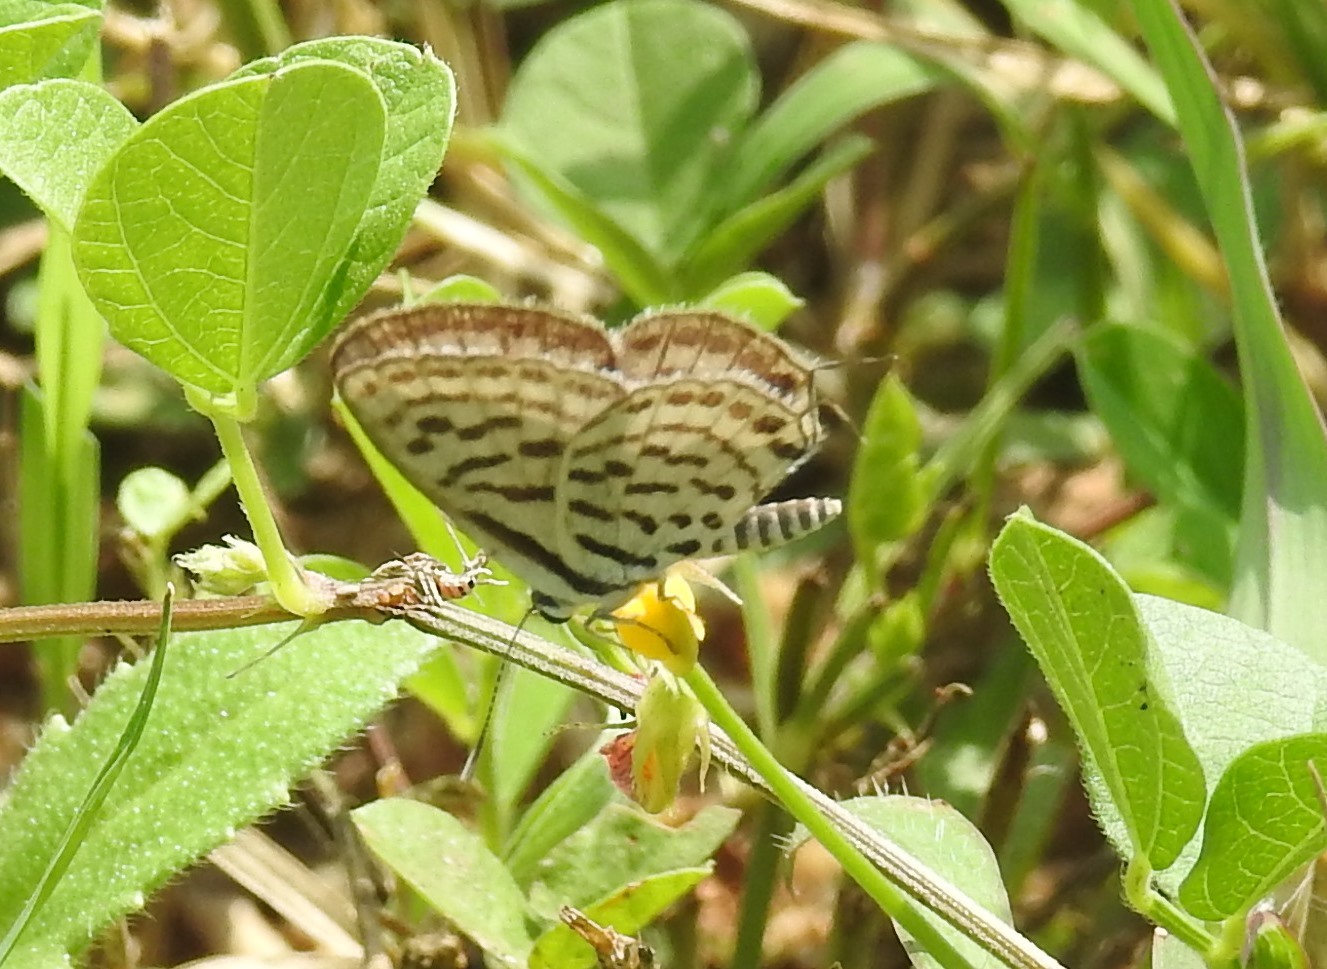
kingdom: Animalia
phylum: Arthropoda
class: Insecta
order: Lepidoptera
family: Lycaenidae
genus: Tarucus
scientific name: Tarucus nara
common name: Striped pierrot
